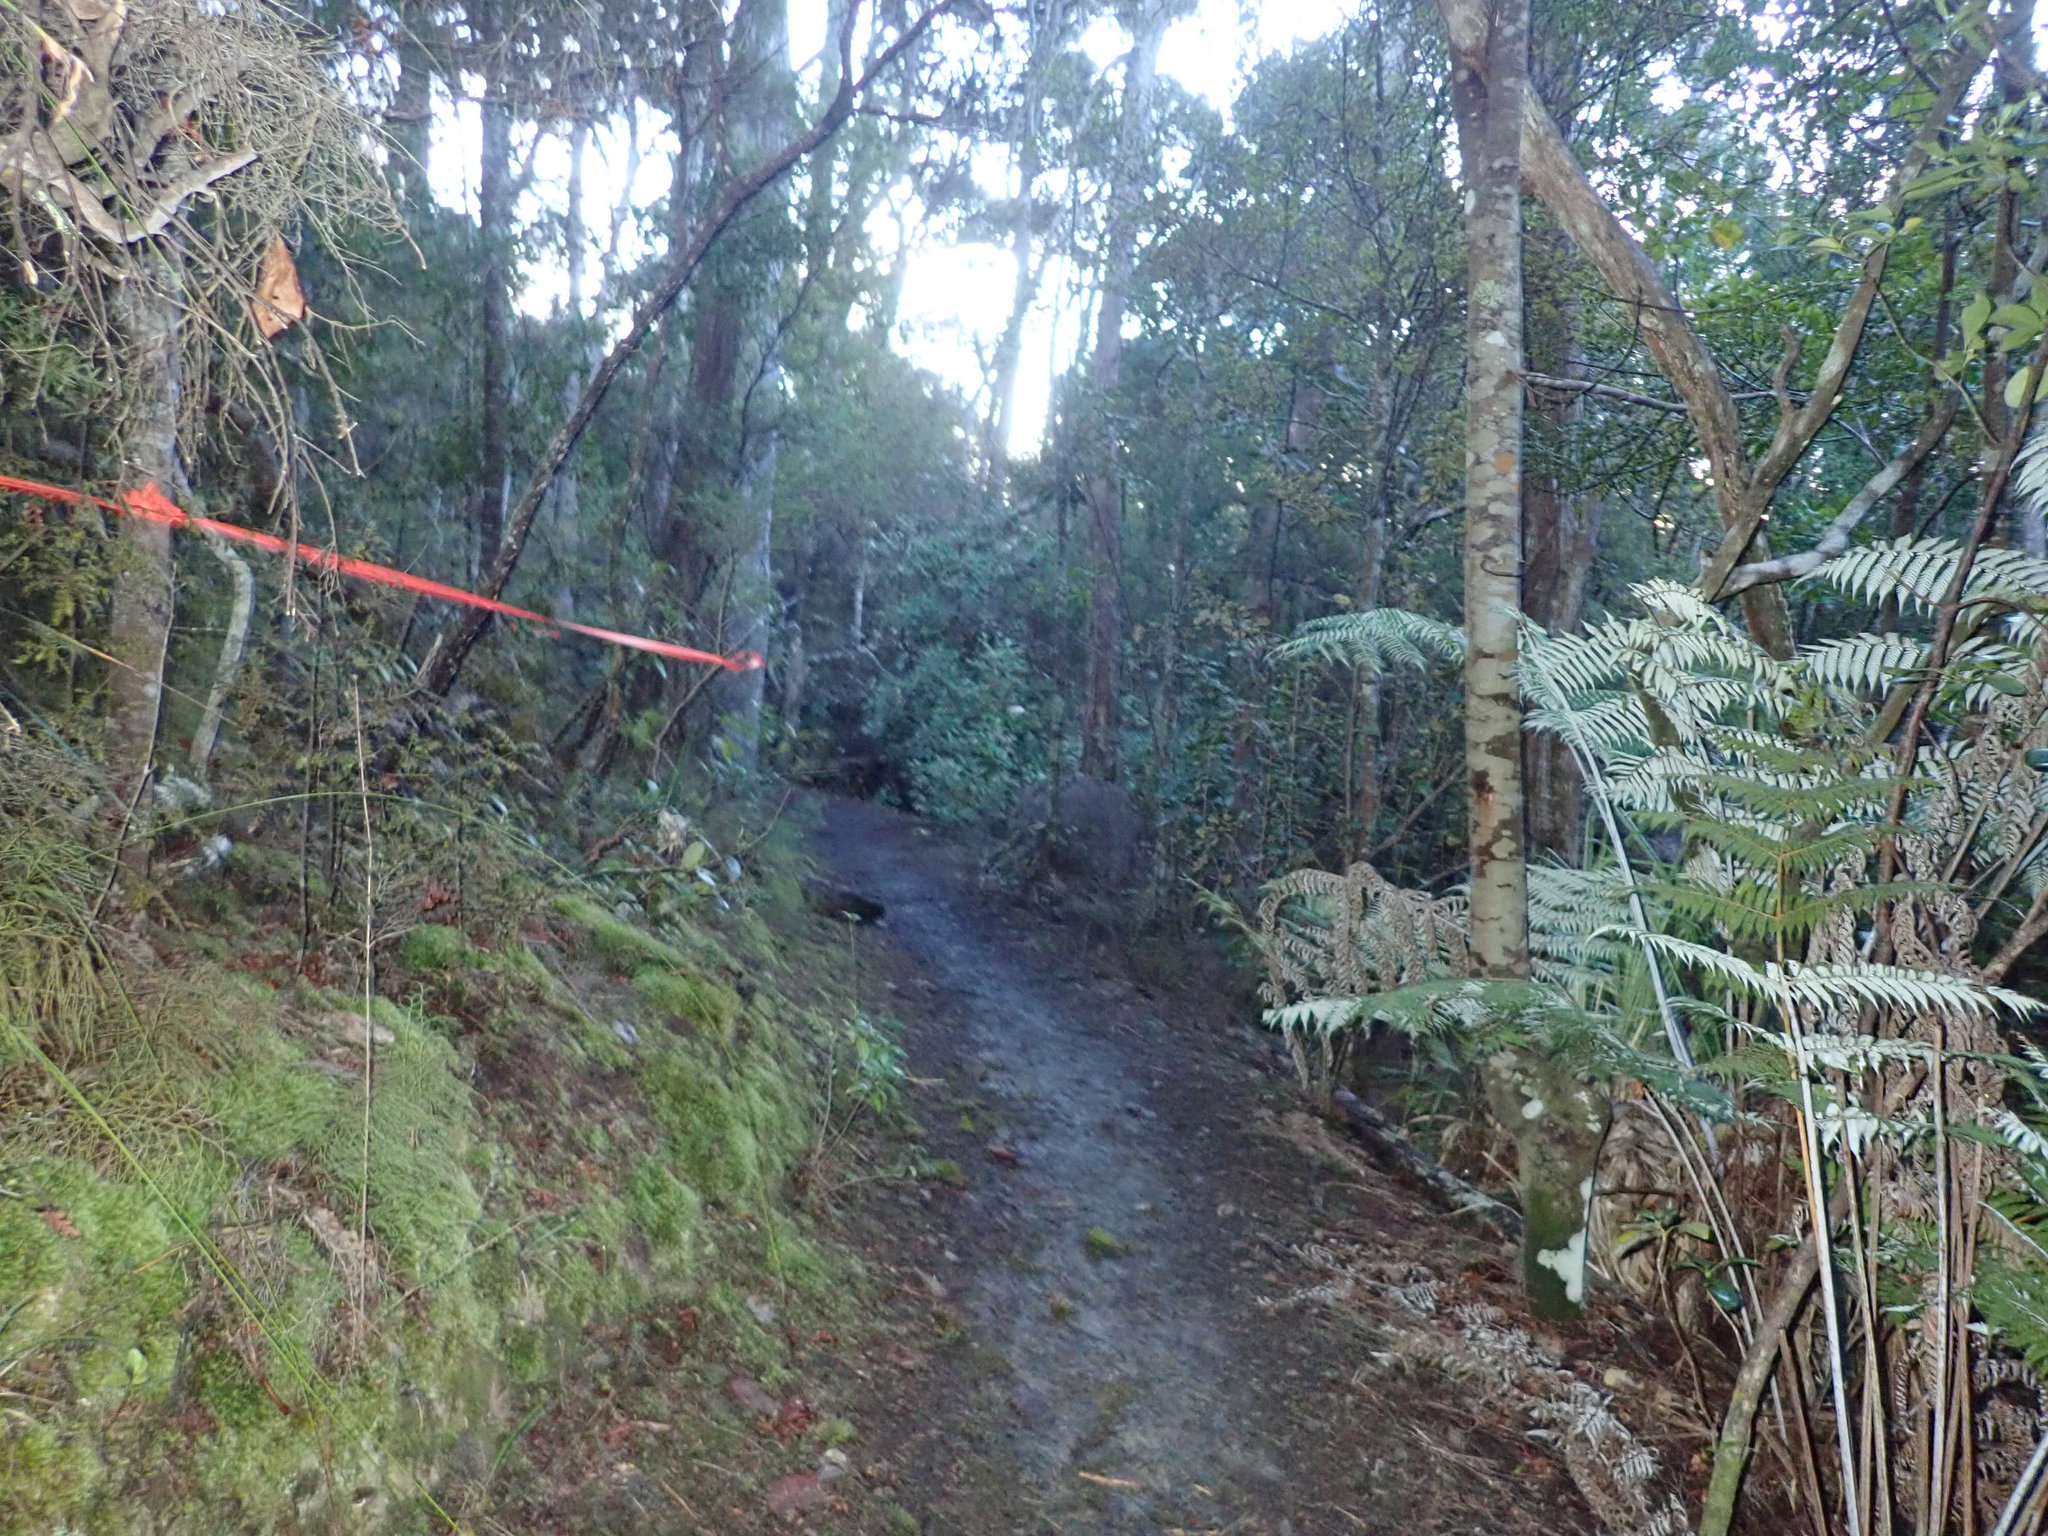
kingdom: Plantae
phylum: Tracheophyta
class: Lycopodiopsida
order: Lycopodiales
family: Lycopodiaceae
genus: Pseudolycopodium
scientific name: Pseudolycopodium densum
